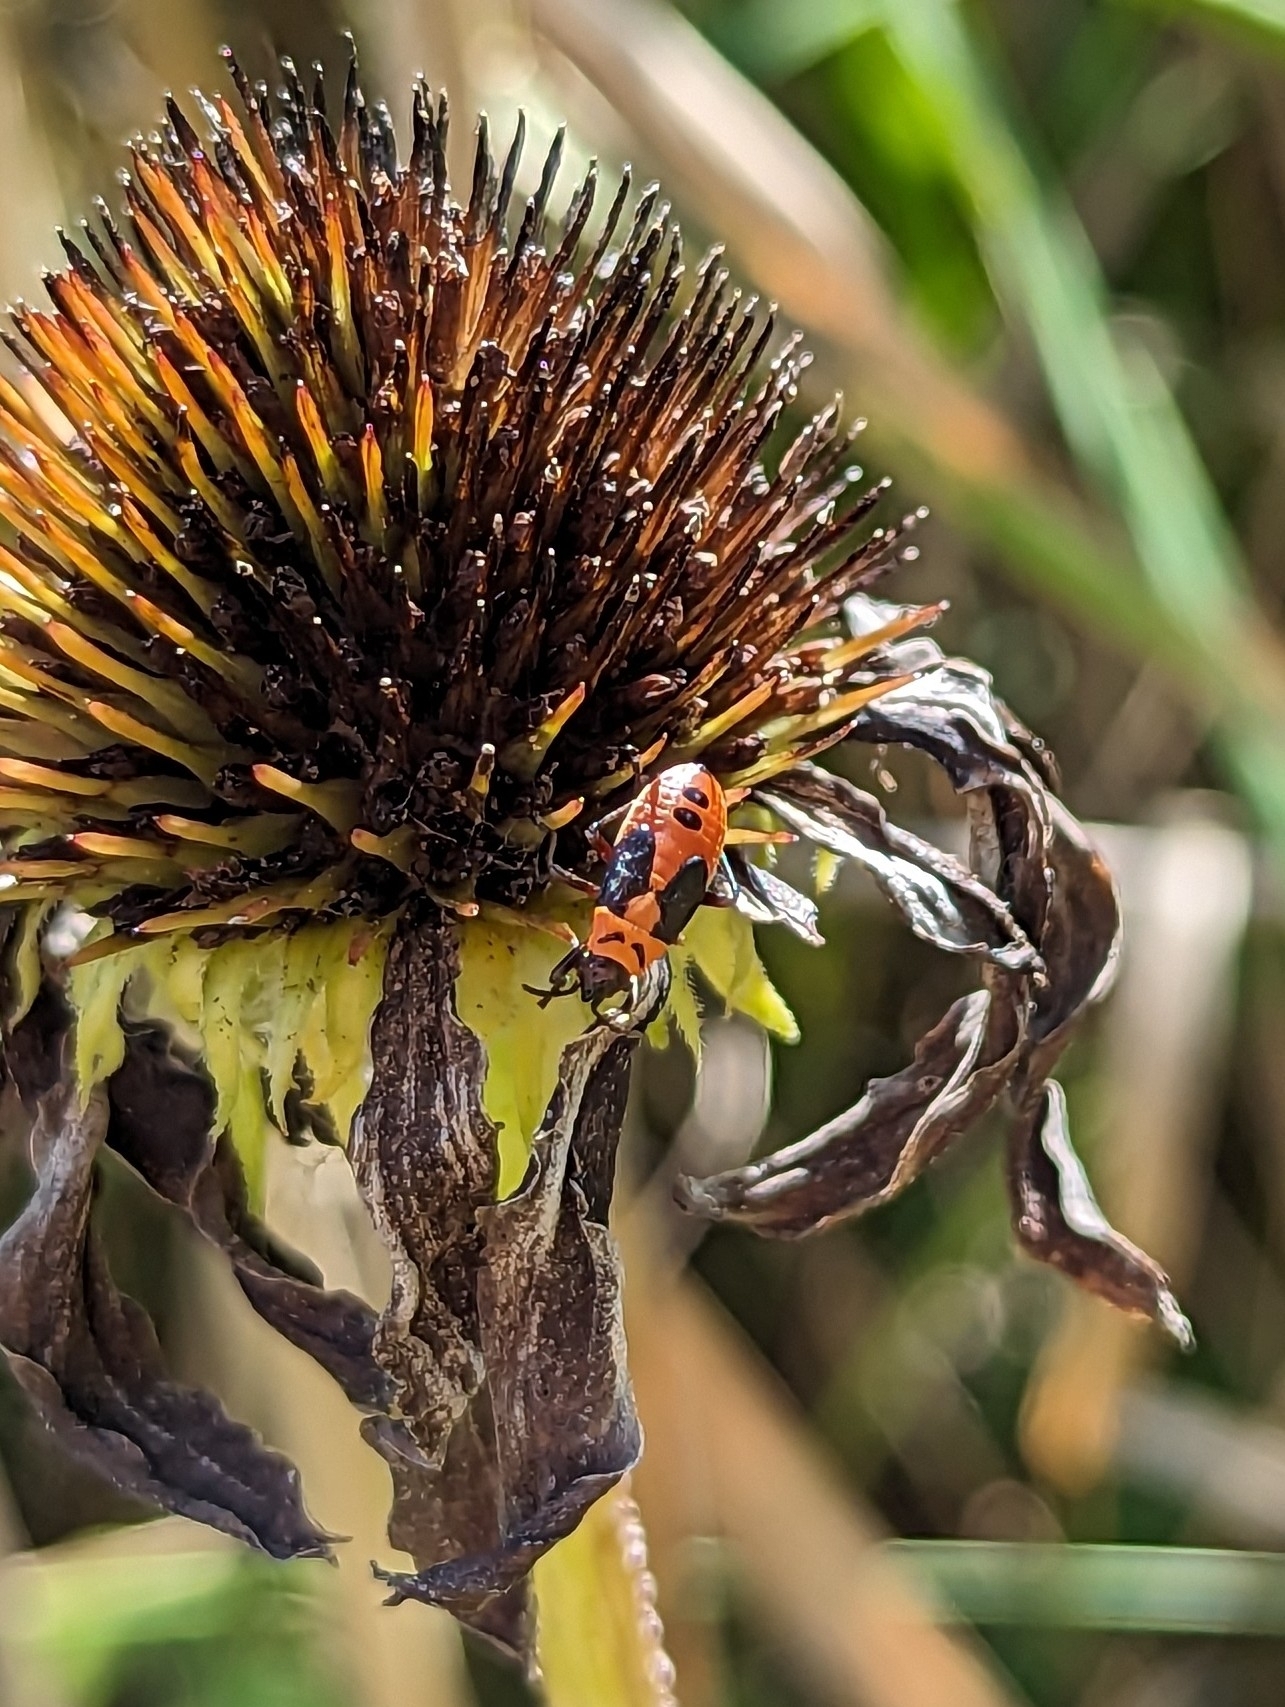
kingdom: Animalia
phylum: Arthropoda
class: Insecta
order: Hemiptera
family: Lygaeidae
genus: Lygaeus
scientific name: Lygaeus turcicus
